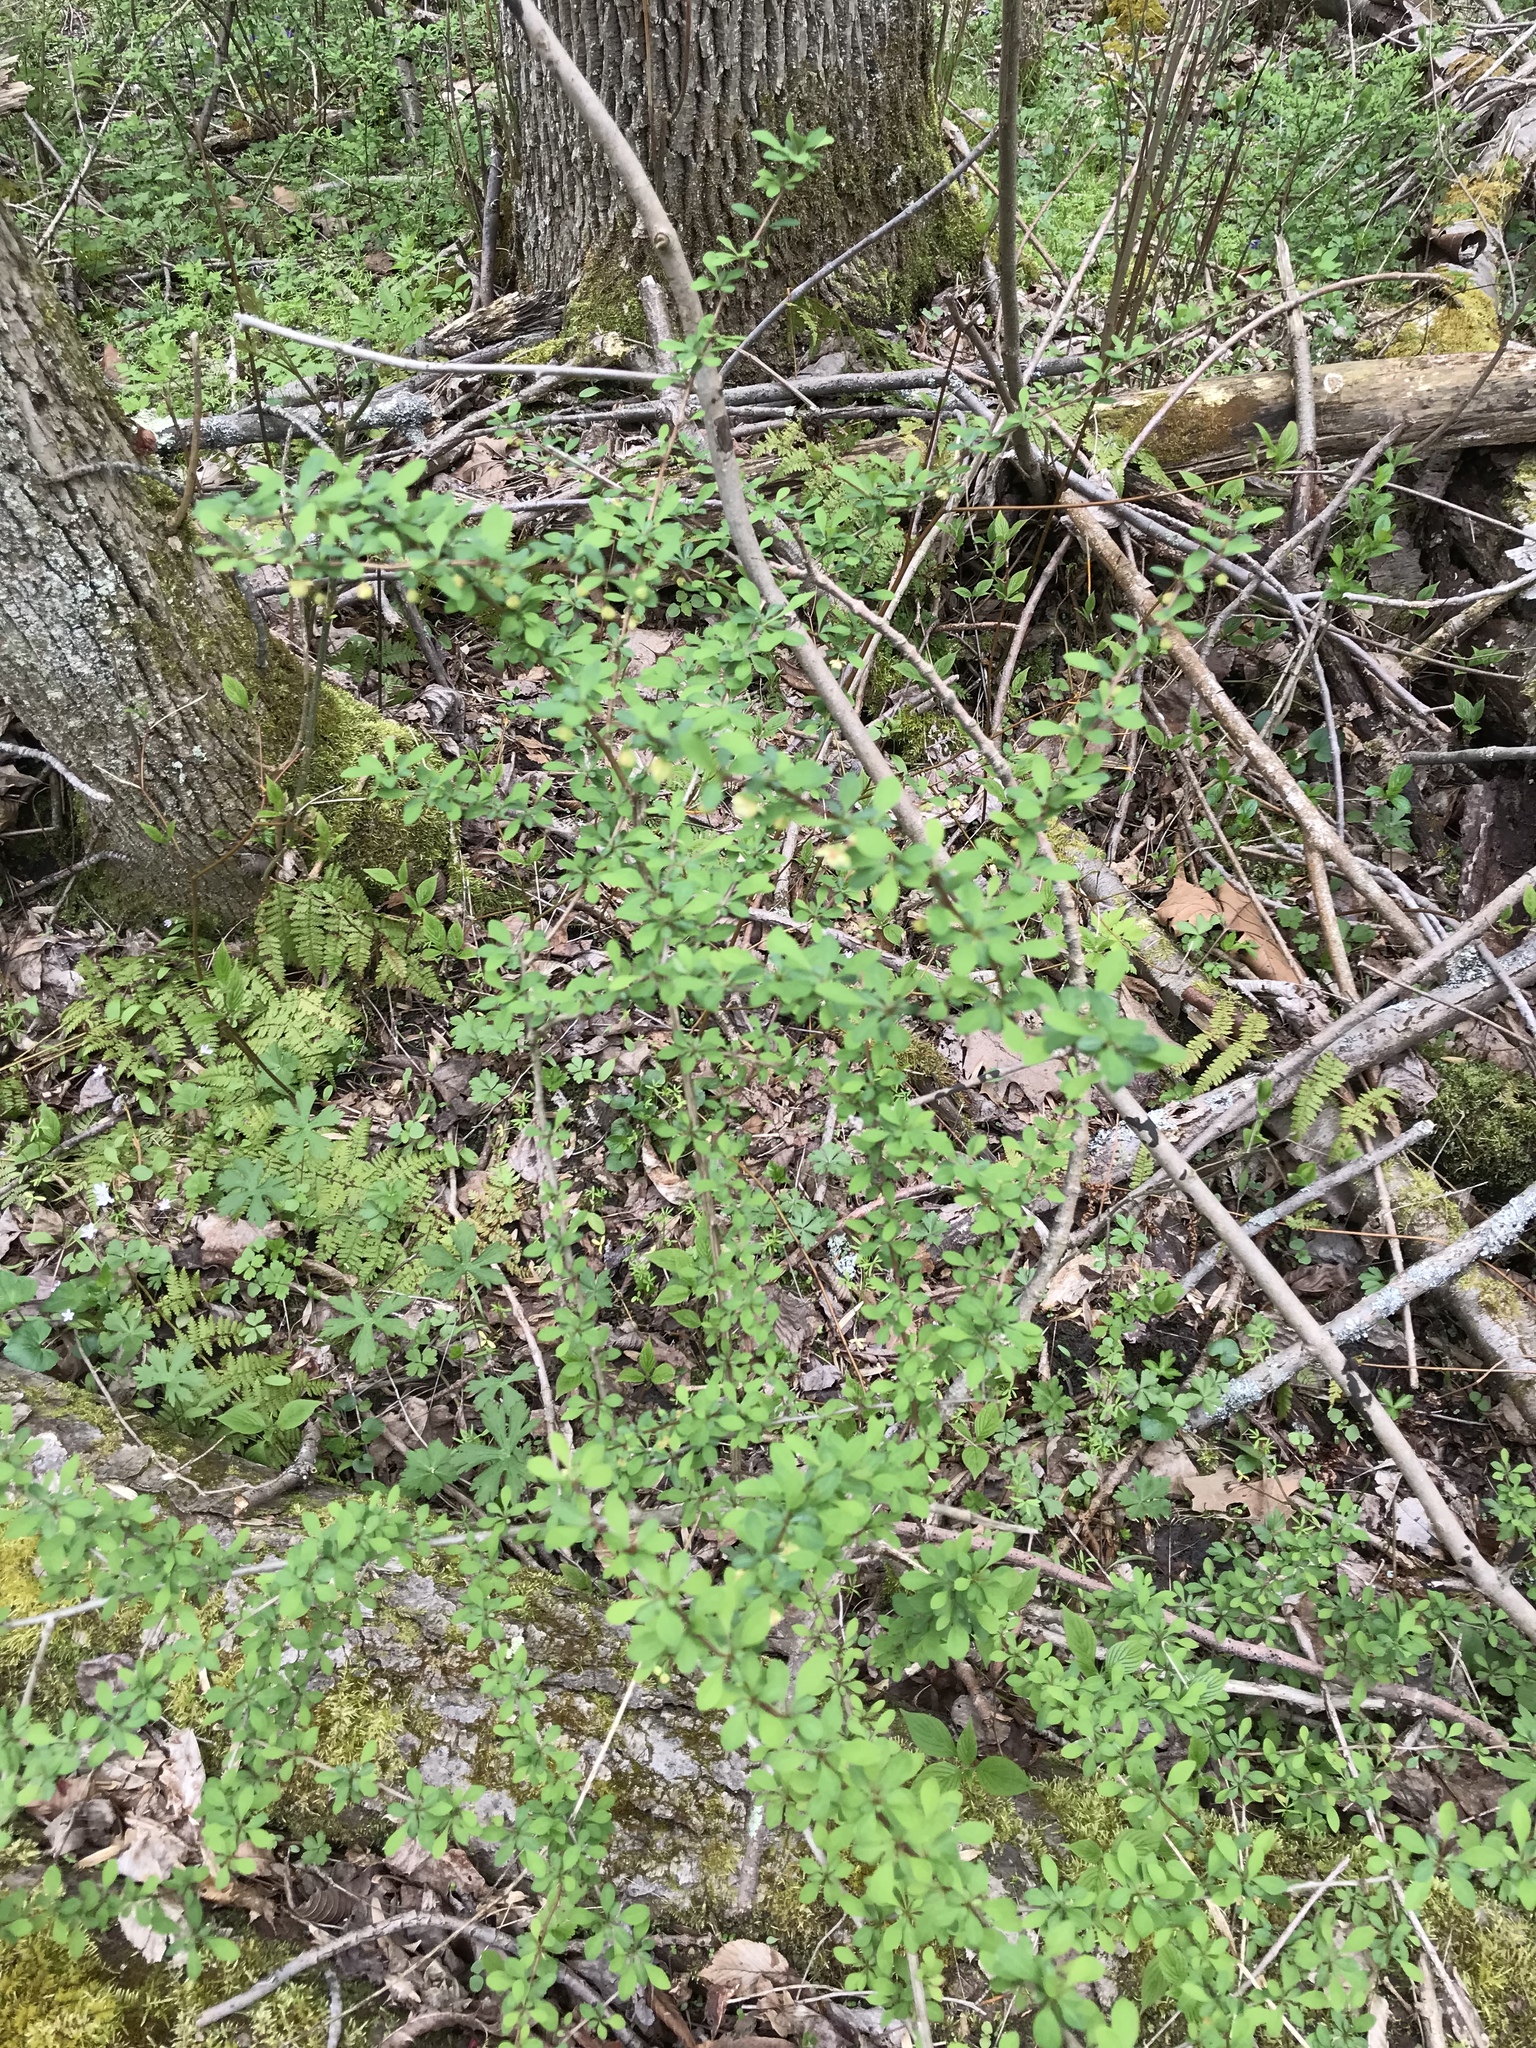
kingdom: Plantae
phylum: Tracheophyta
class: Magnoliopsida
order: Ranunculales
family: Berberidaceae
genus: Berberis
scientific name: Berberis thunbergii
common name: Japanese barberry
